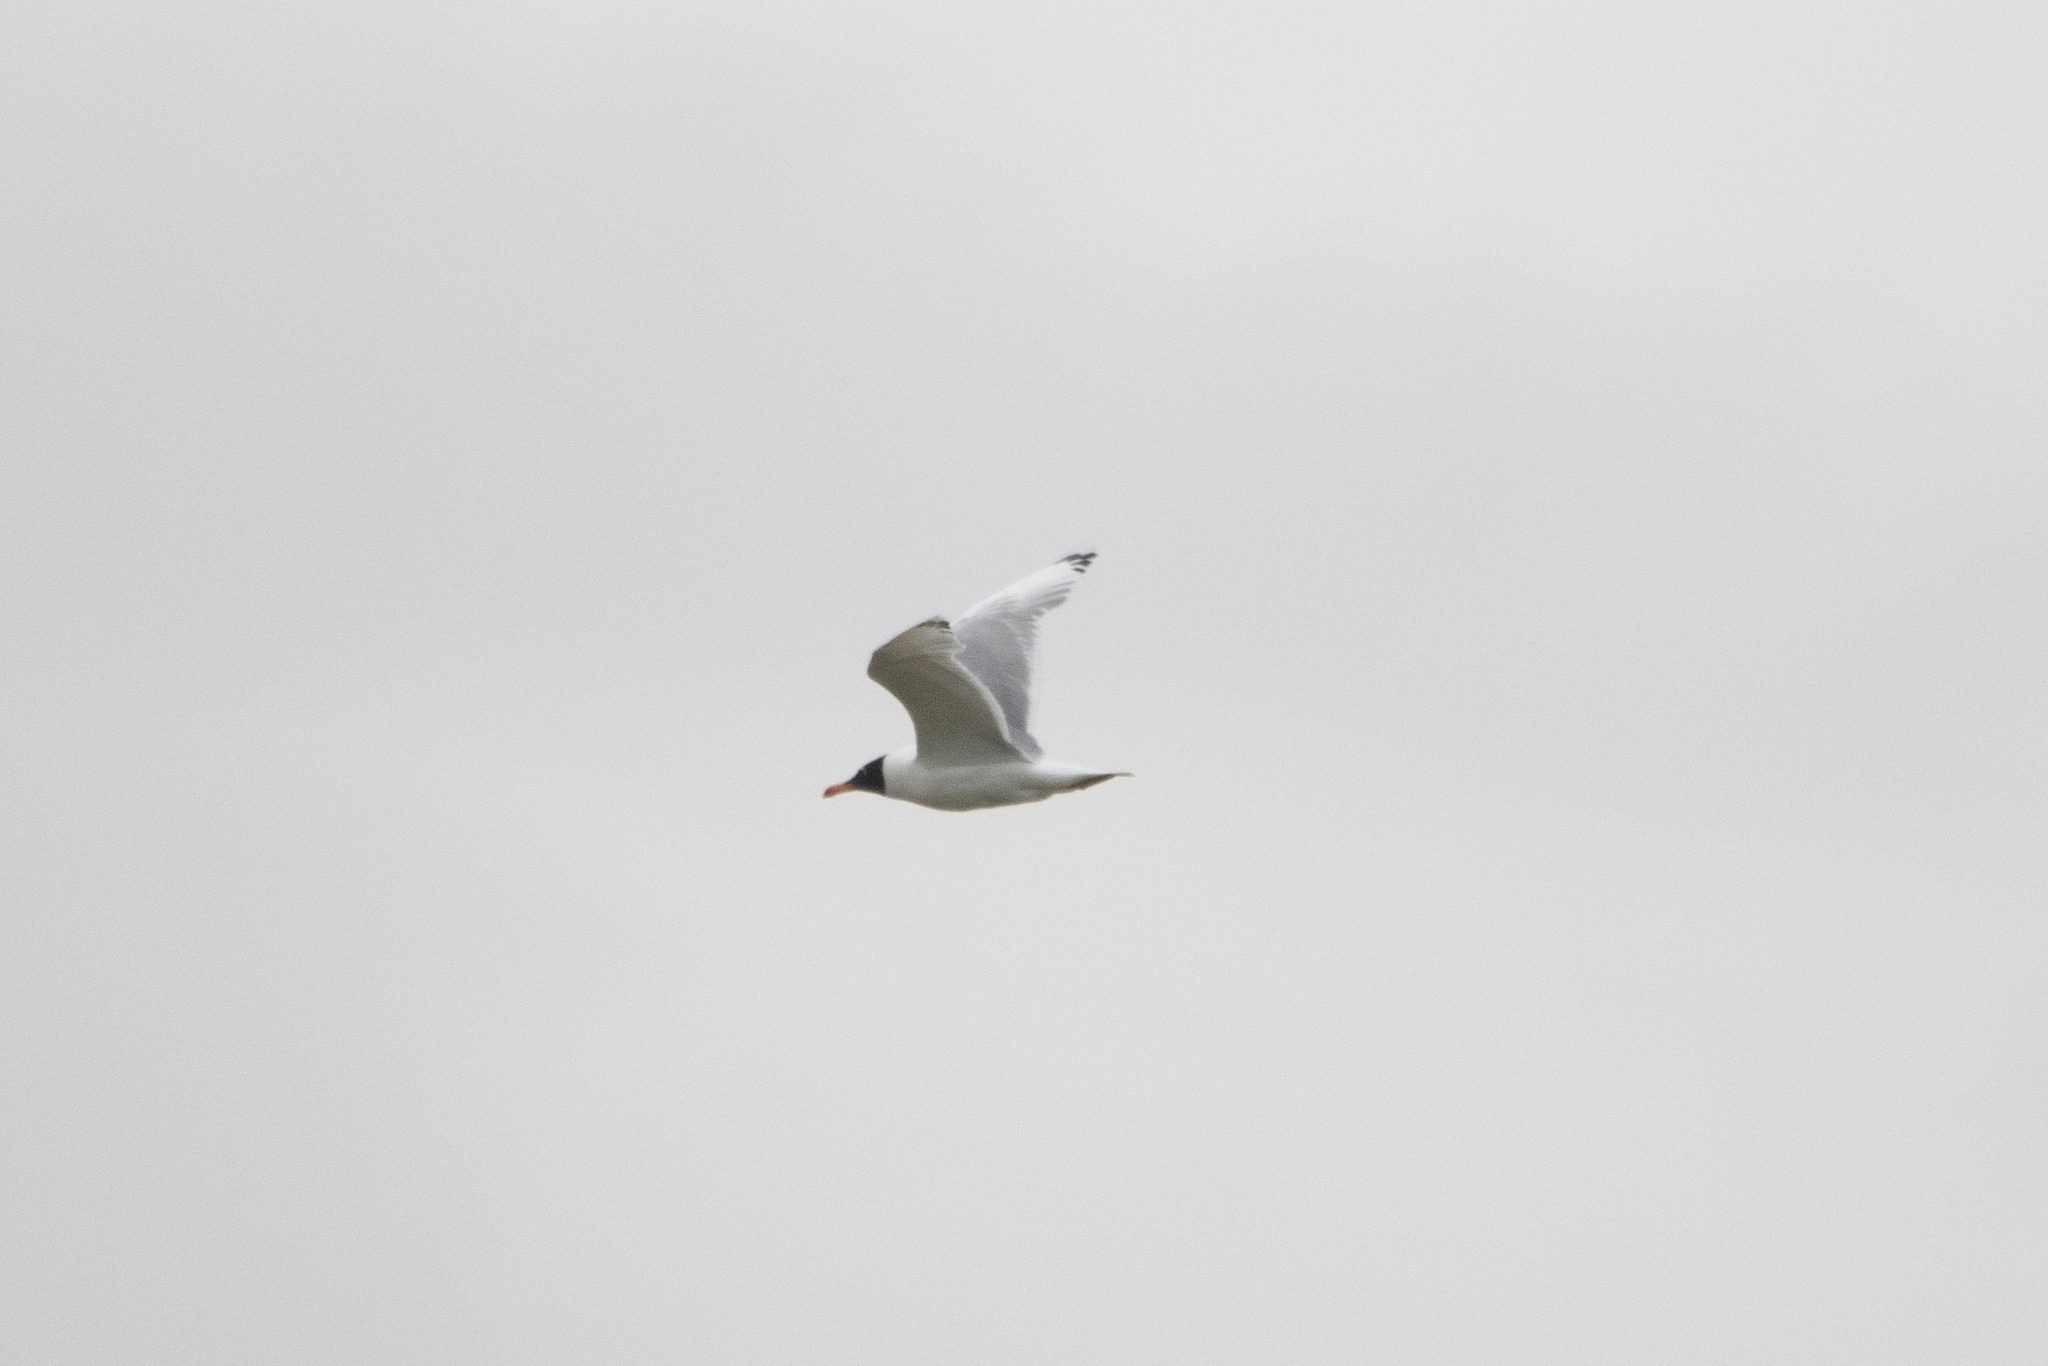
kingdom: Animalia
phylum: Chordata
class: Aves
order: Charadriiformes
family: Laridae
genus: Ichthyaetus
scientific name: Ichthyaetus ichthyaetus
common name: Pallas's gull
